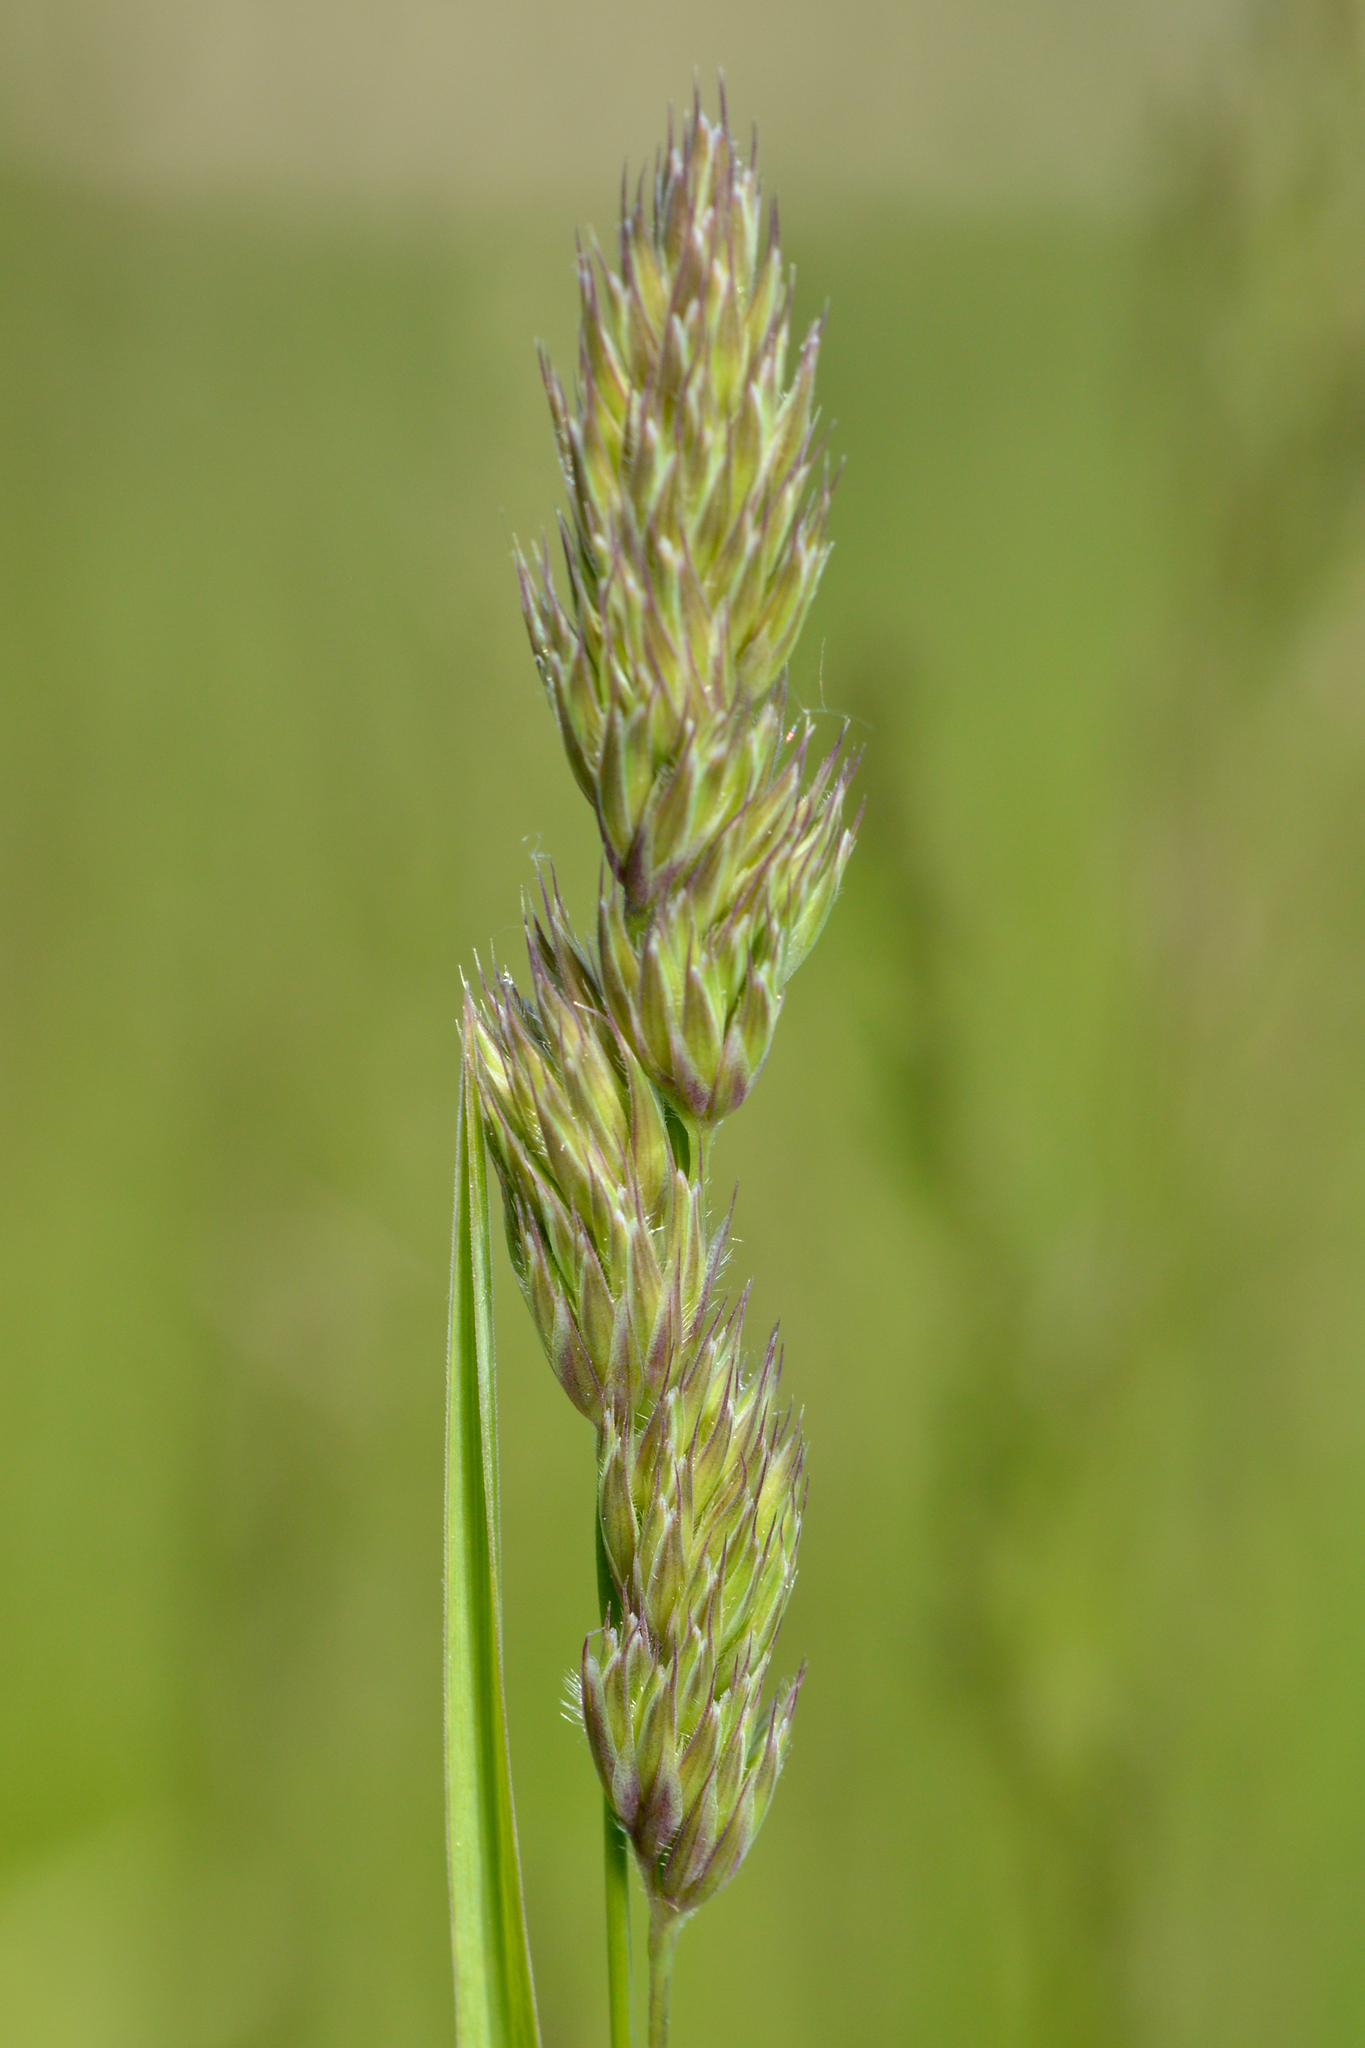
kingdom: Plantae
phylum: Tracheophyta
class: Liliopsida
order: Poales
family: Poaceae
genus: Dactylis
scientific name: Dactylis glomerata
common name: Orchardgrass
